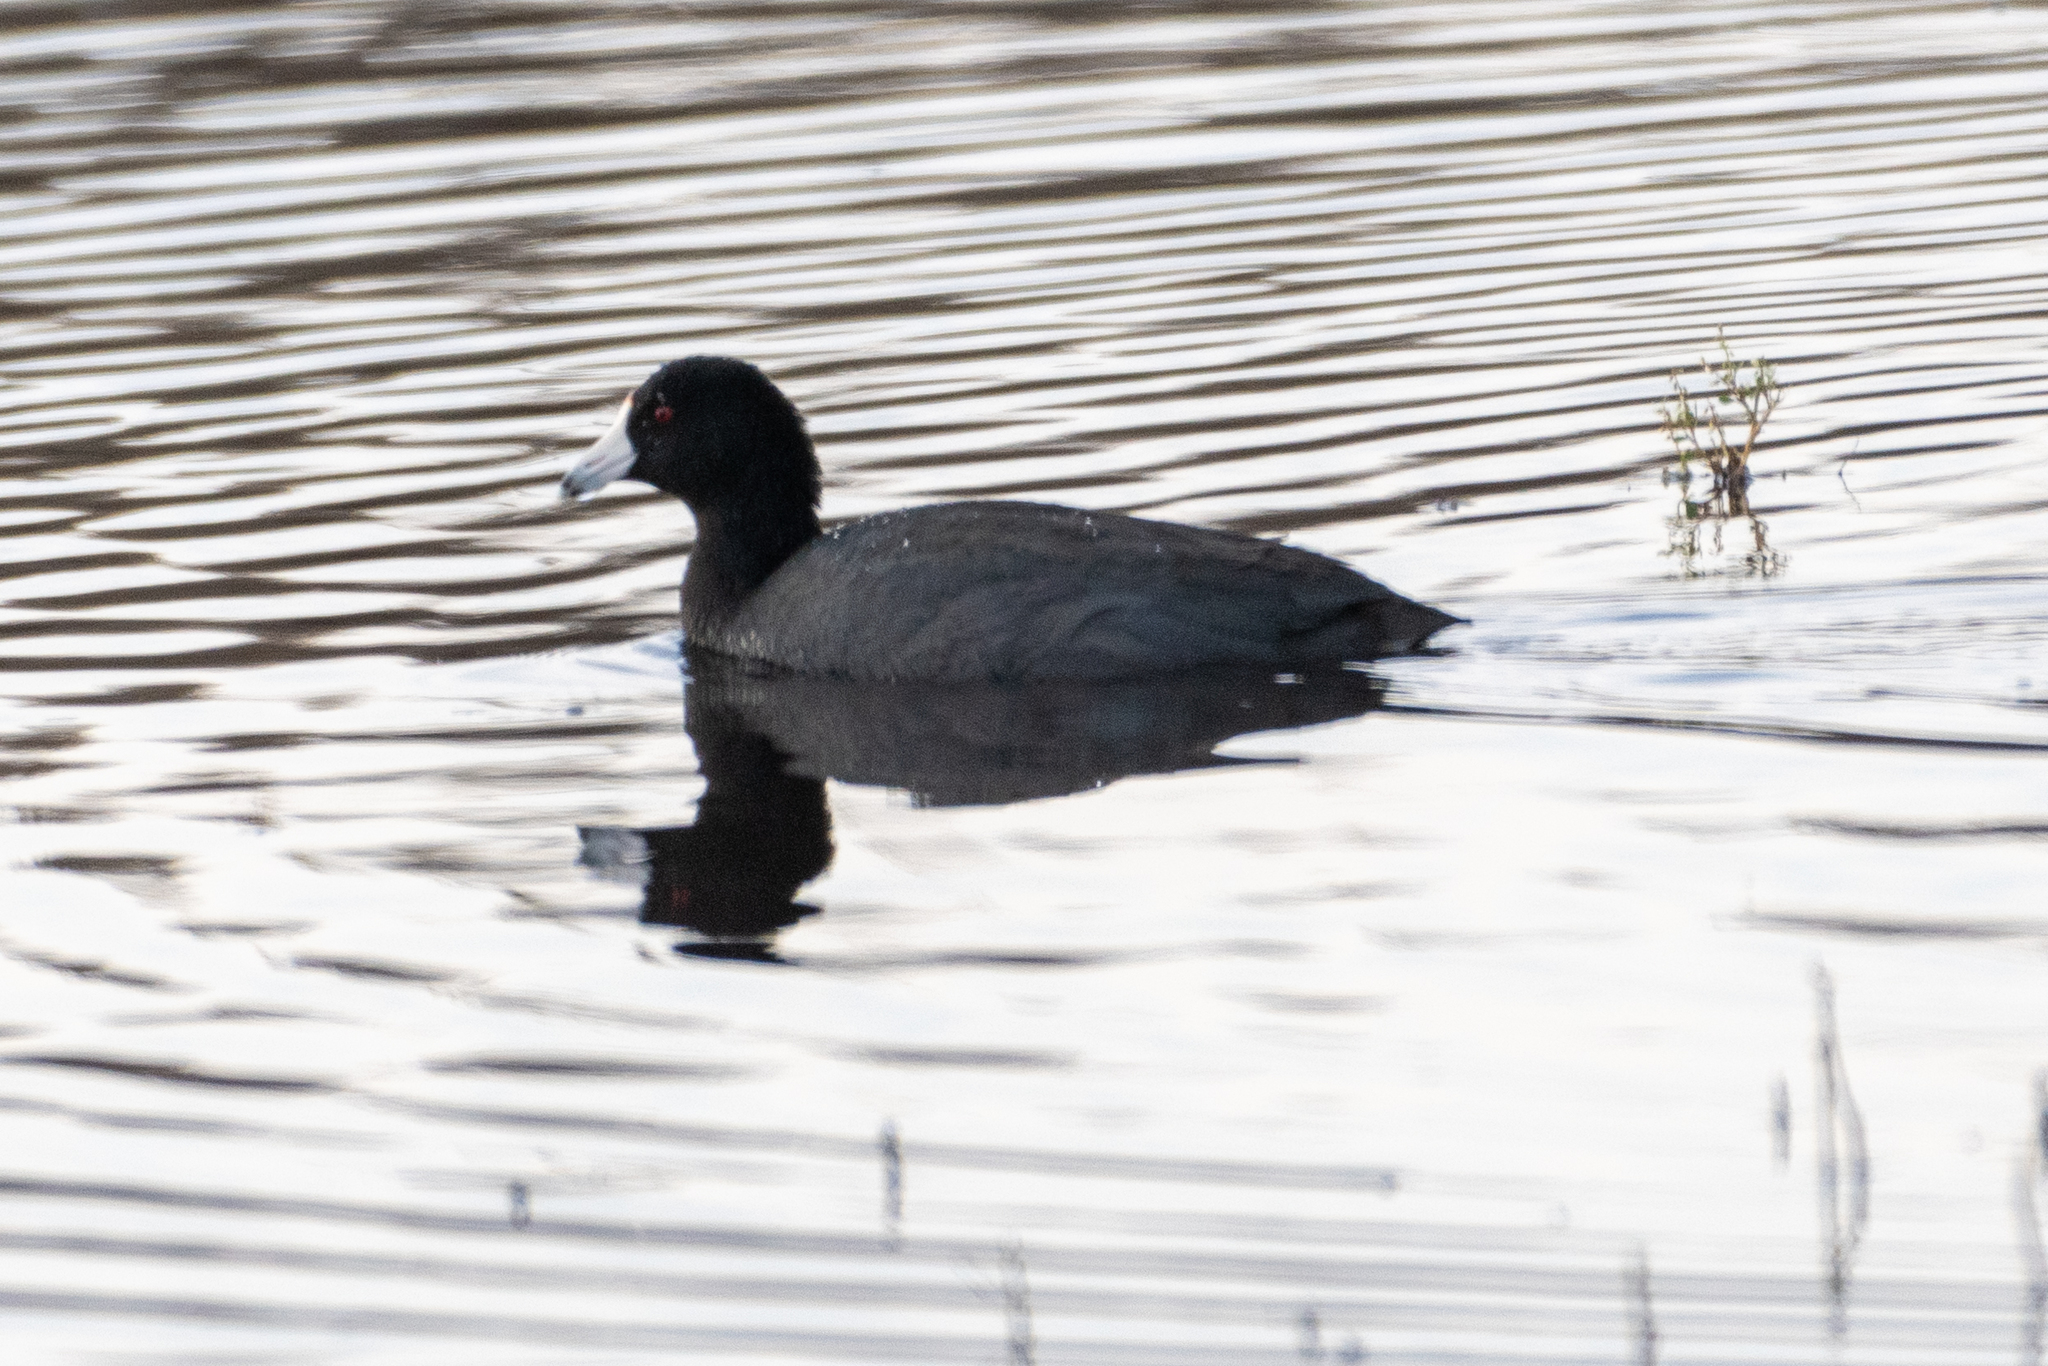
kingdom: Animalia
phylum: Chordata
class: Aves
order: Gruiformes
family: Rallidae
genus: Fulica
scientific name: Fulica americana
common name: American coot
